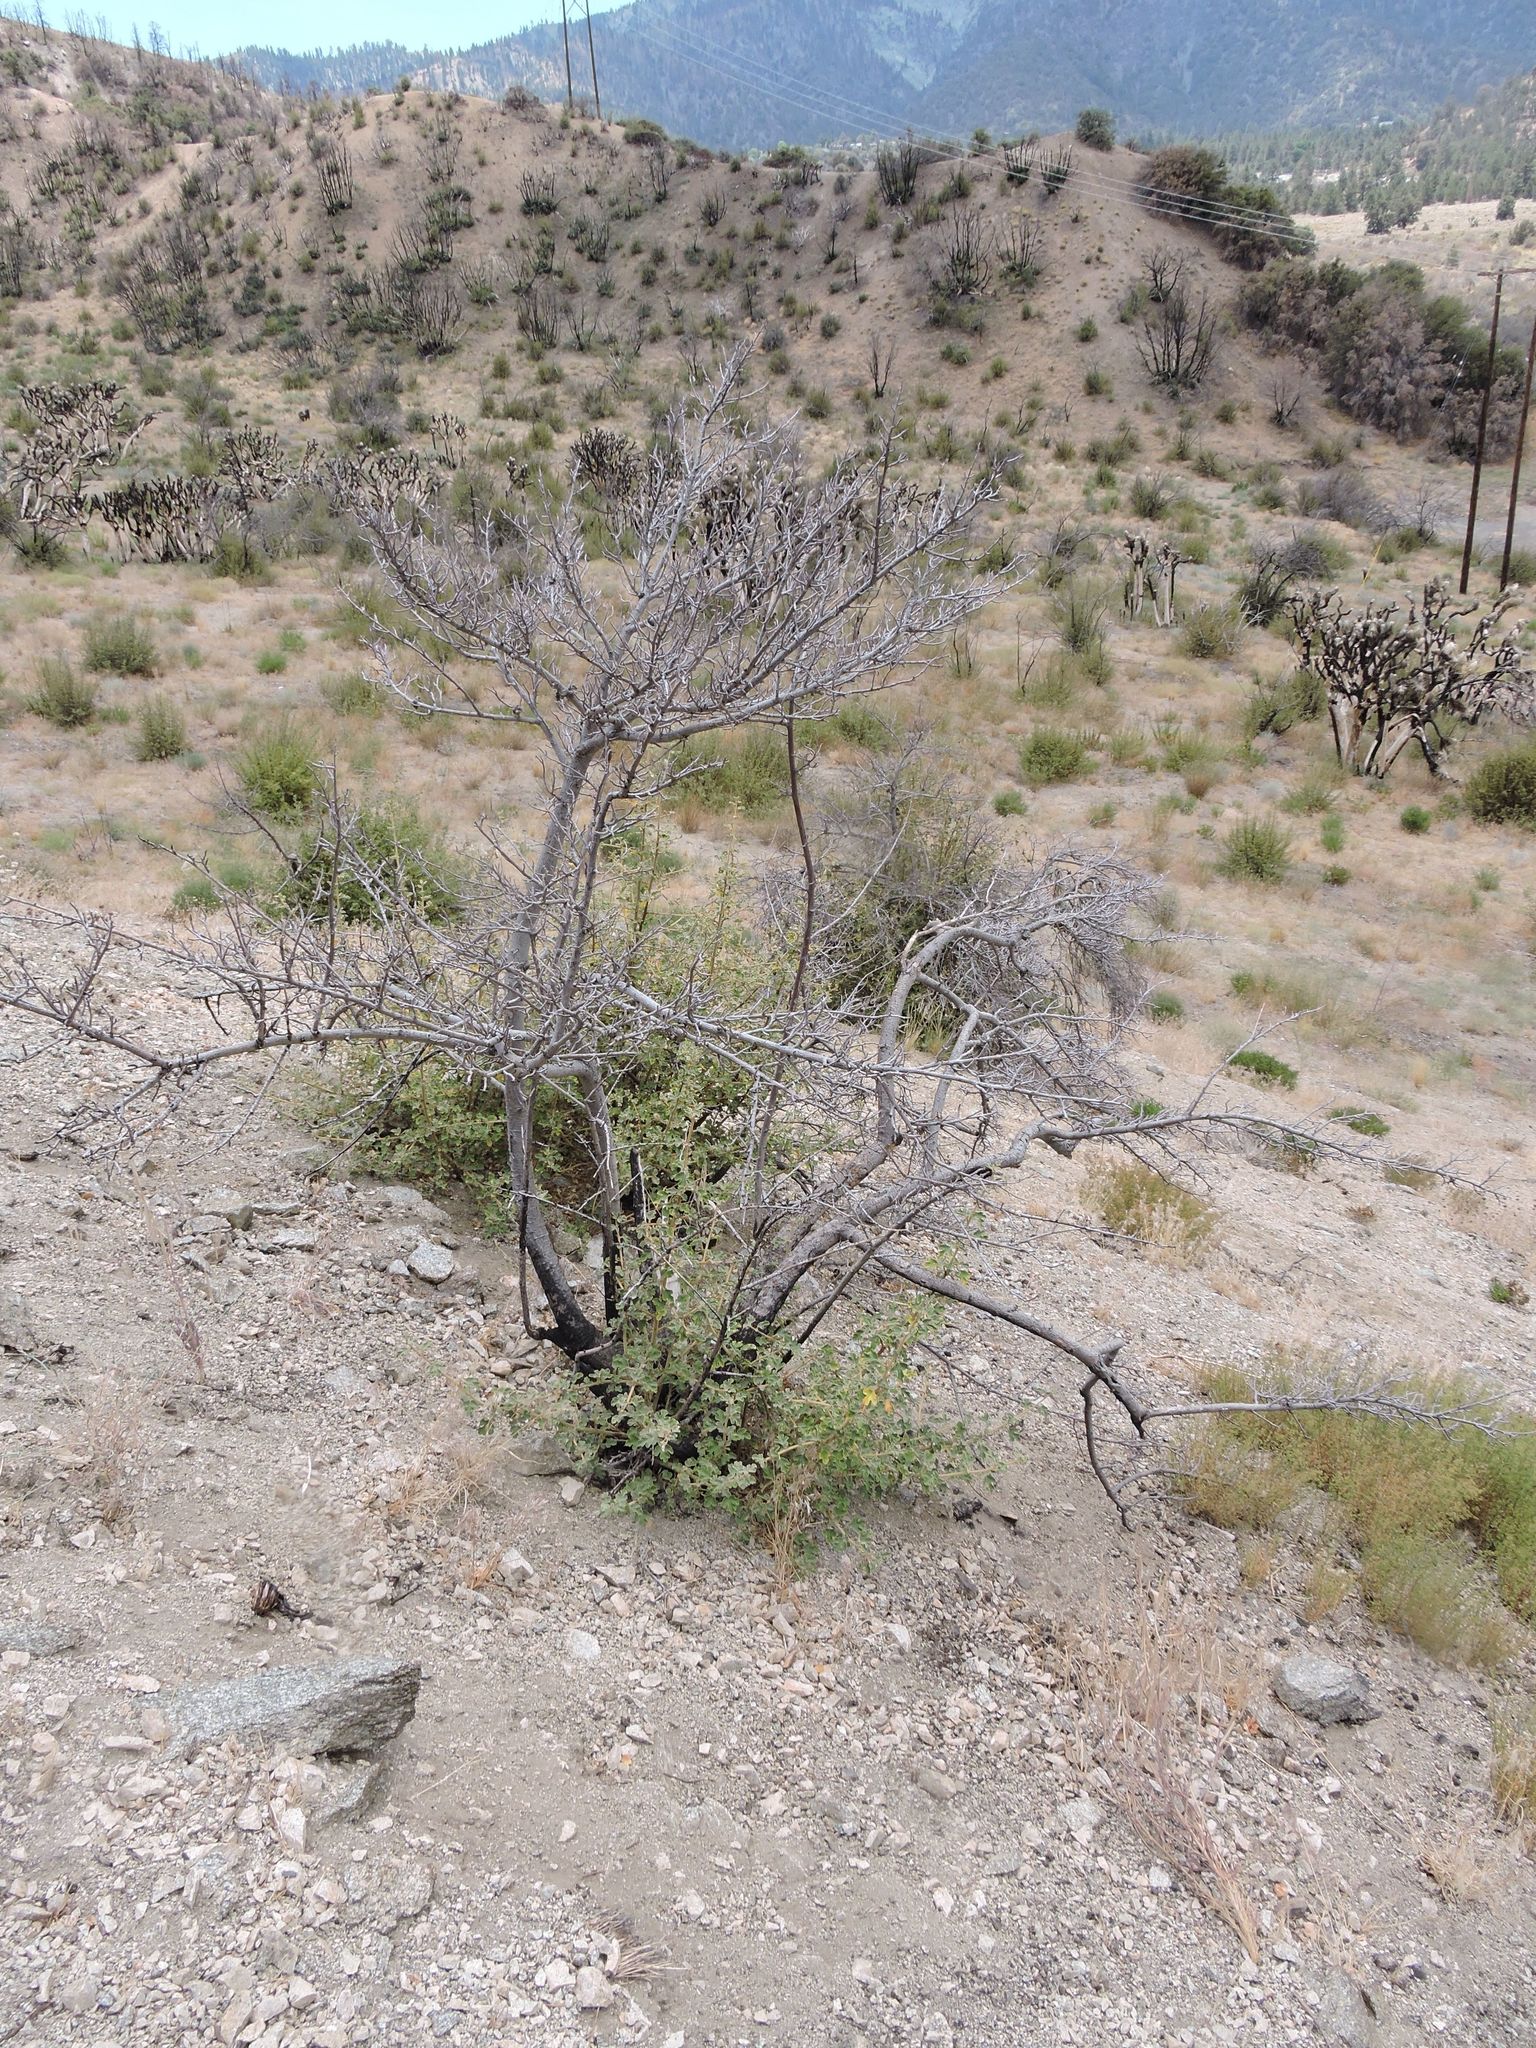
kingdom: Plantae
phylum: Tracheophyta
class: Magnoliopsida
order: Malvales
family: Malvaceae
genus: Fremontodendron
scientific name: Fremontodendron californicum
